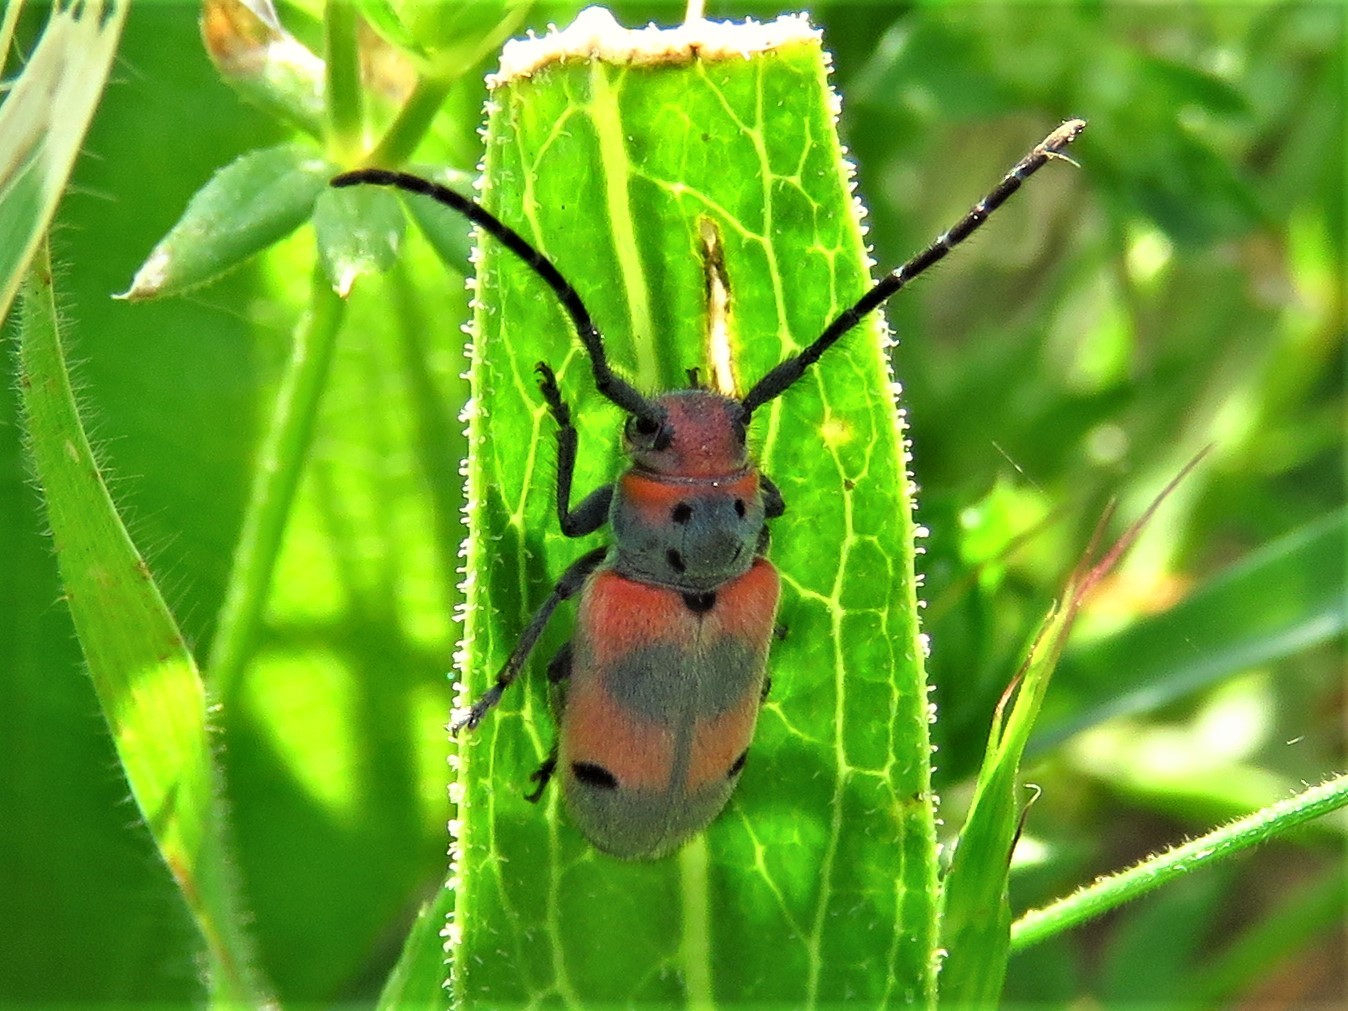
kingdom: Animalia
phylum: Arthropoda
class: Insecta
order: Coleoptera
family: Cerambycidae
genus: Tetraopes
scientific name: Tetraopes discoideus
